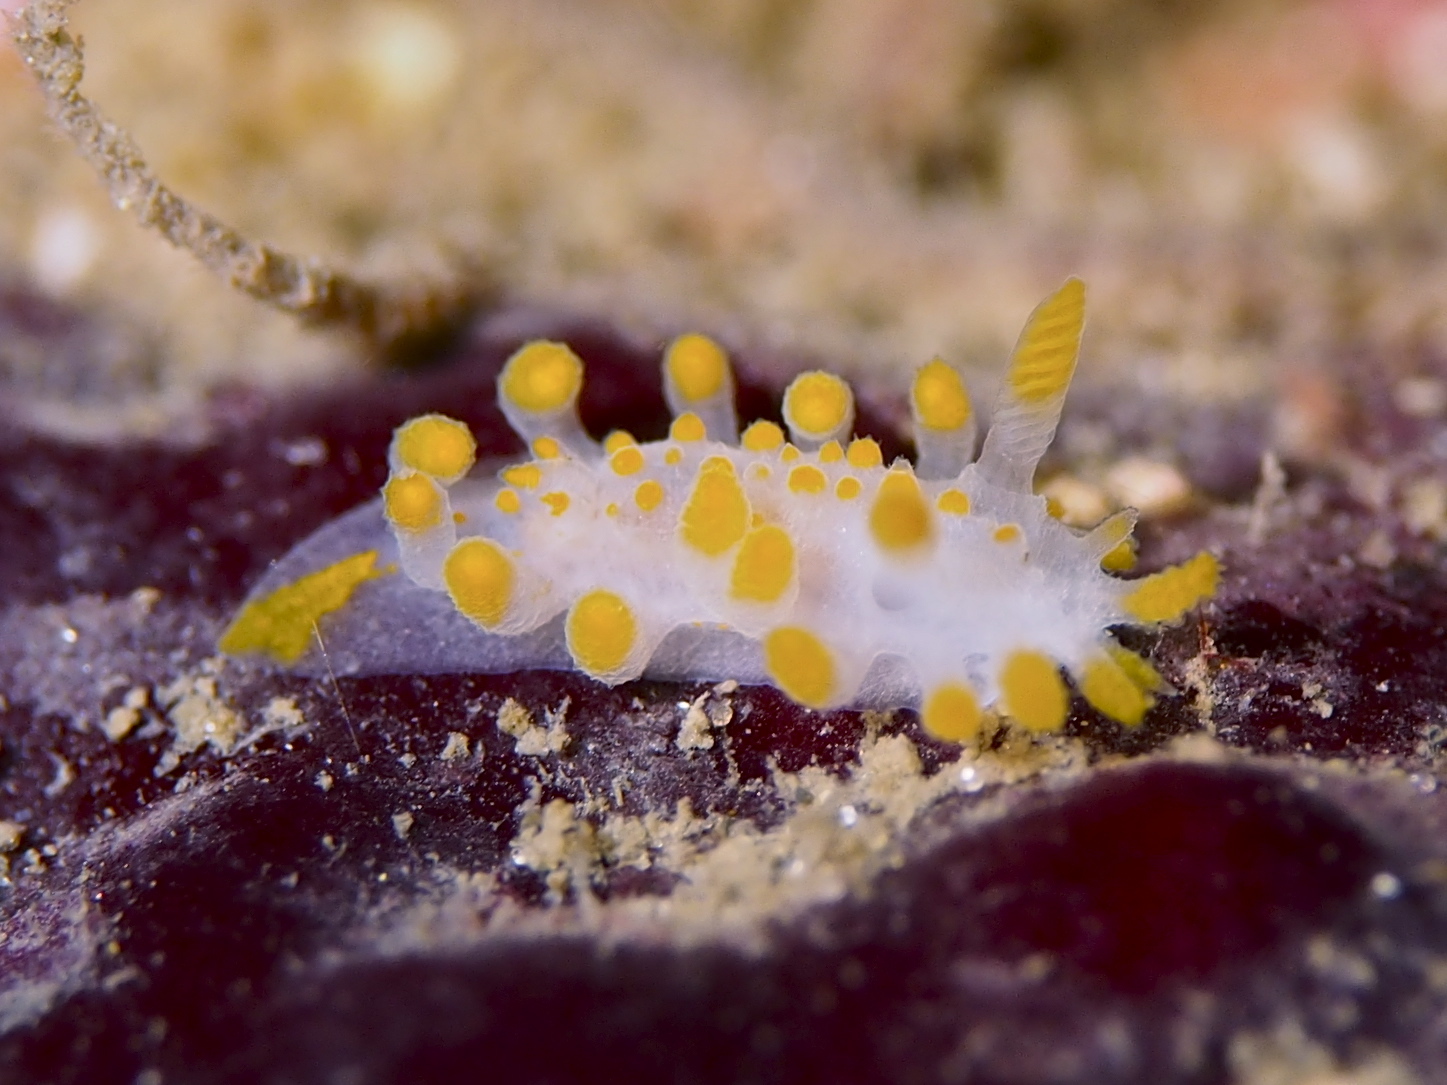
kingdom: Animalia
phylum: Mollusca
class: Gastropoda
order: Nudibranchia
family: Polyceridae
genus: Limacia
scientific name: Limacia clavigera
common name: Orange-clubbed sea slug
